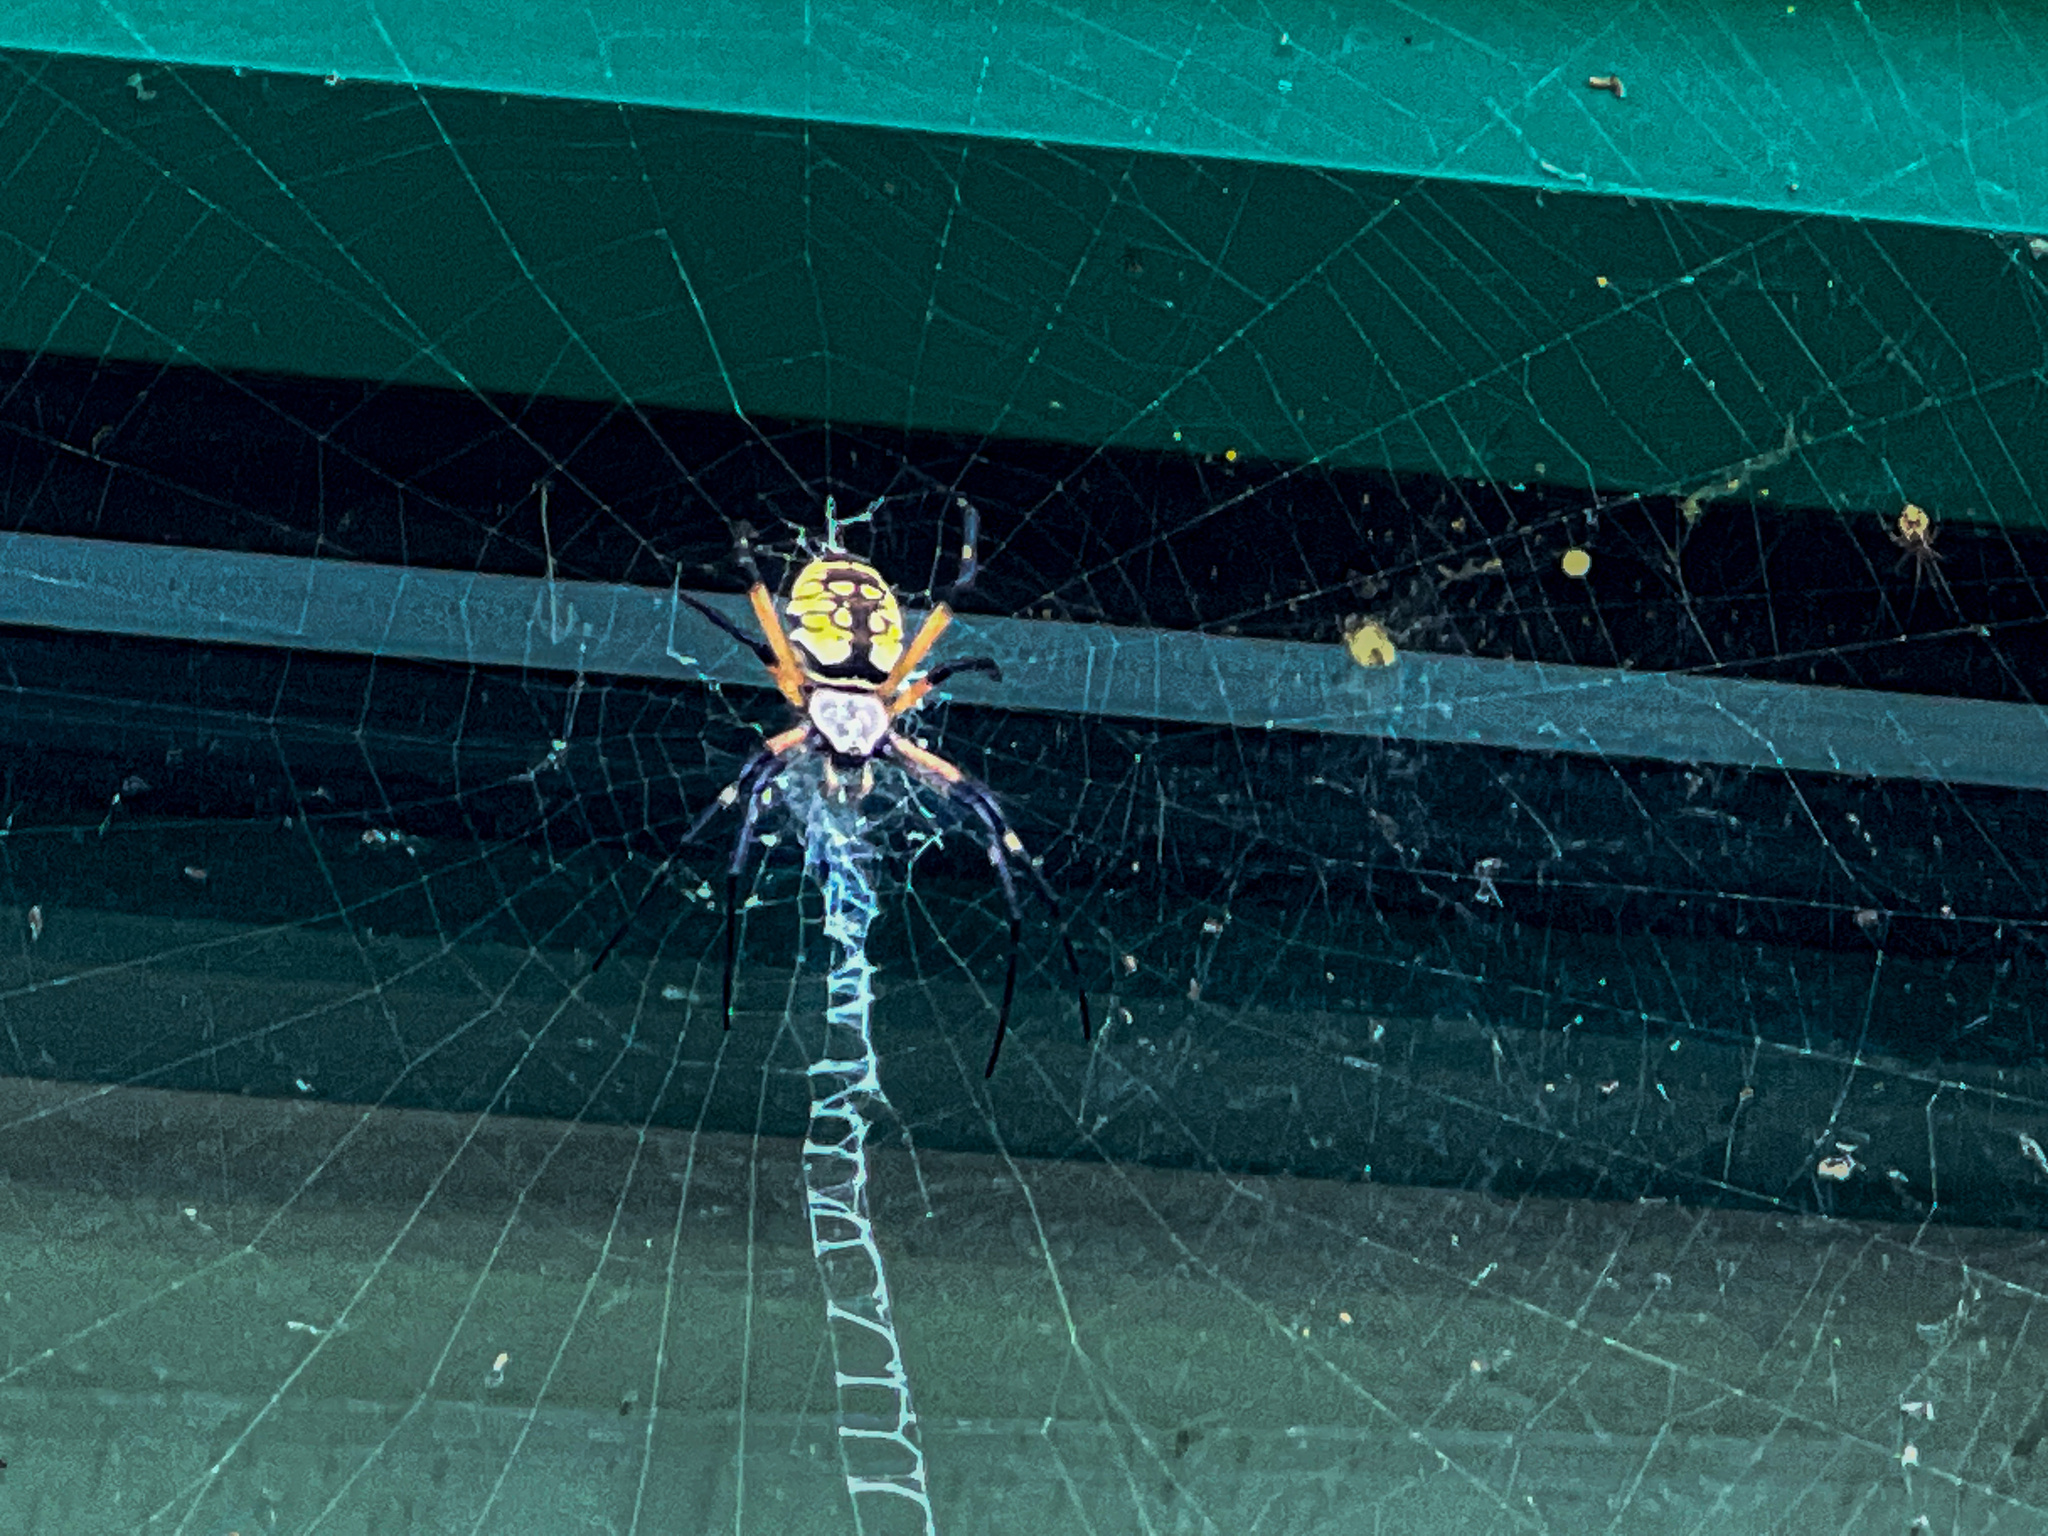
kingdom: Animalia
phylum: Arthropoda
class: Arachnida
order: Araneae
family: Araneidae
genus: Argiope
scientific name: Argiope aurantia
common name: Orb weavers
